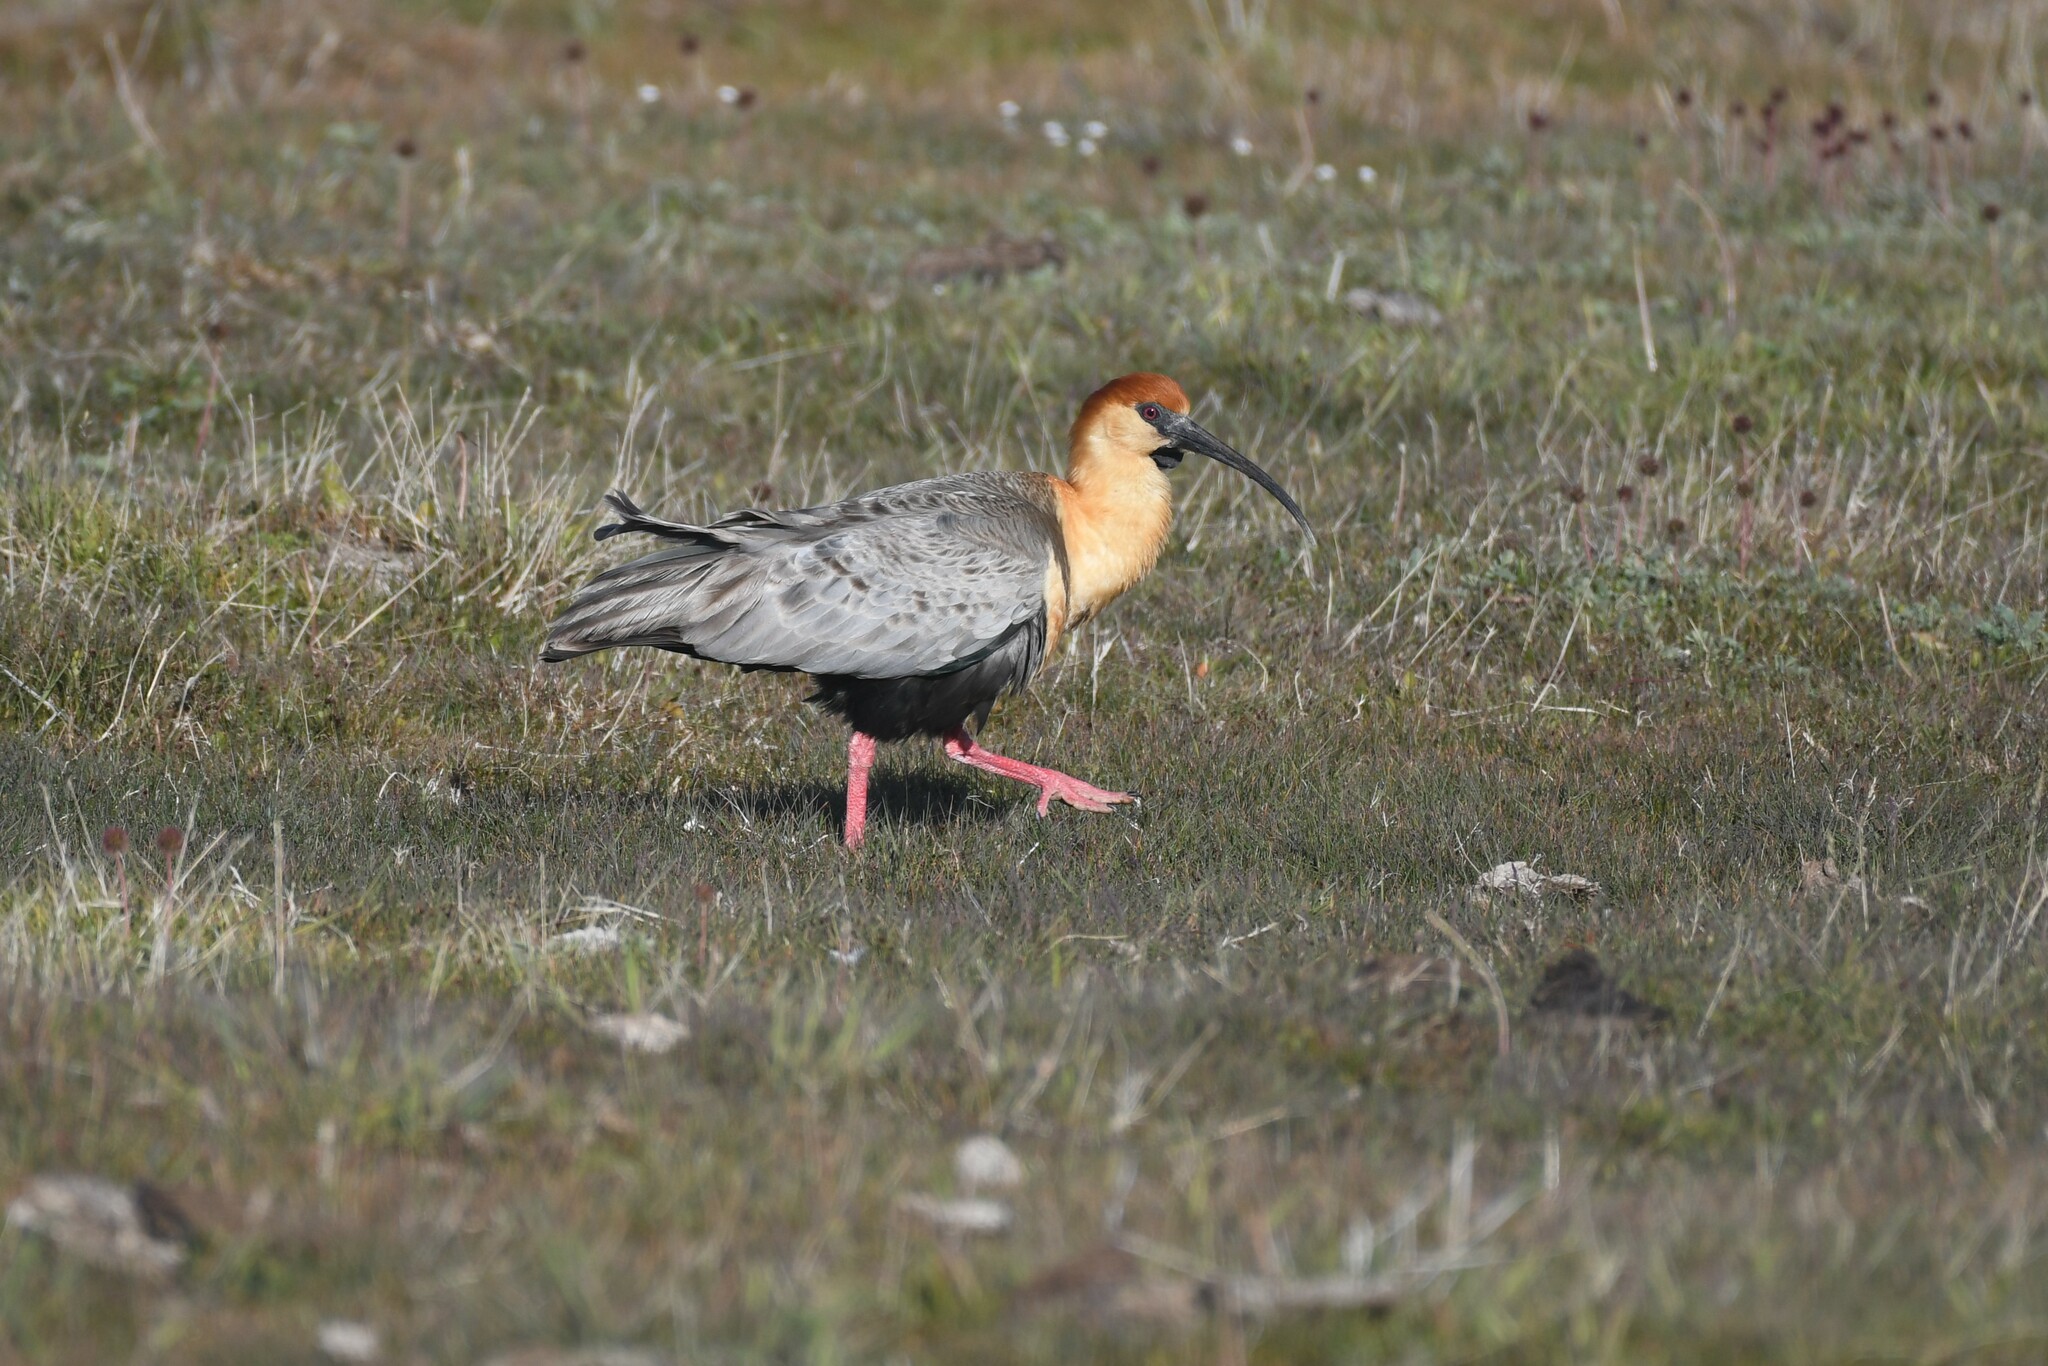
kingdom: Animalia
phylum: Chordata
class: Aves
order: Pelecaniformes
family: Threskiornithidae
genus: Theristicus
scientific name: Theristicus melanopis
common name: Black-faced ibis
